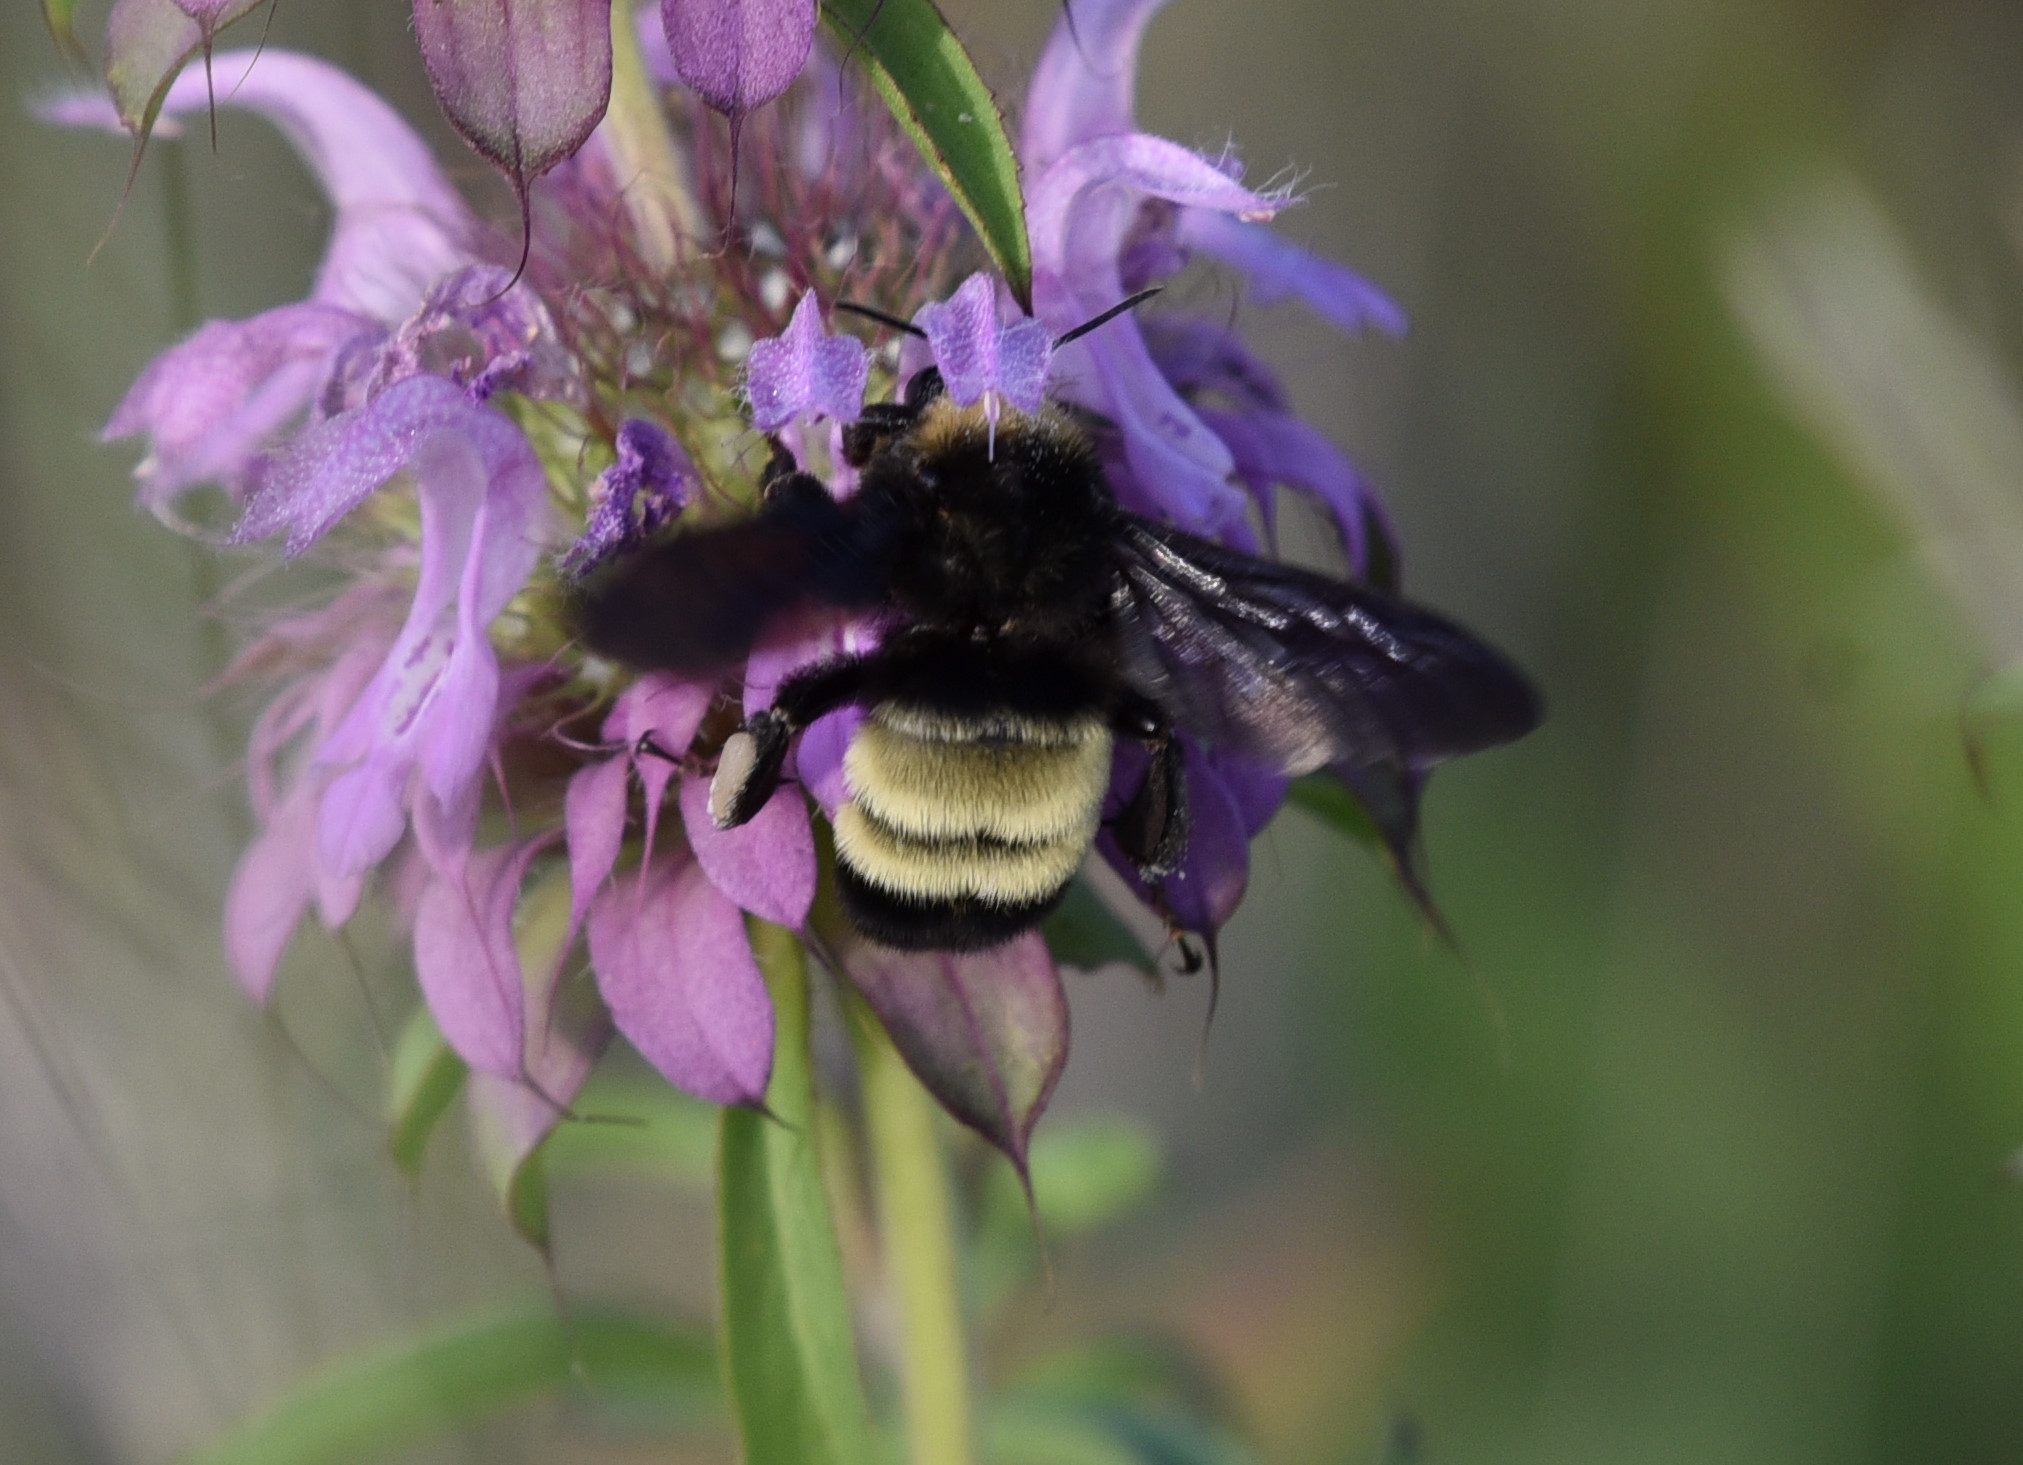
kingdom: Animalia
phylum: Arthropoda
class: Insecta
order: Hymenoptera
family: Apidae
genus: Bombus
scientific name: Bombus pensylvanicus
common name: Bumble bee
